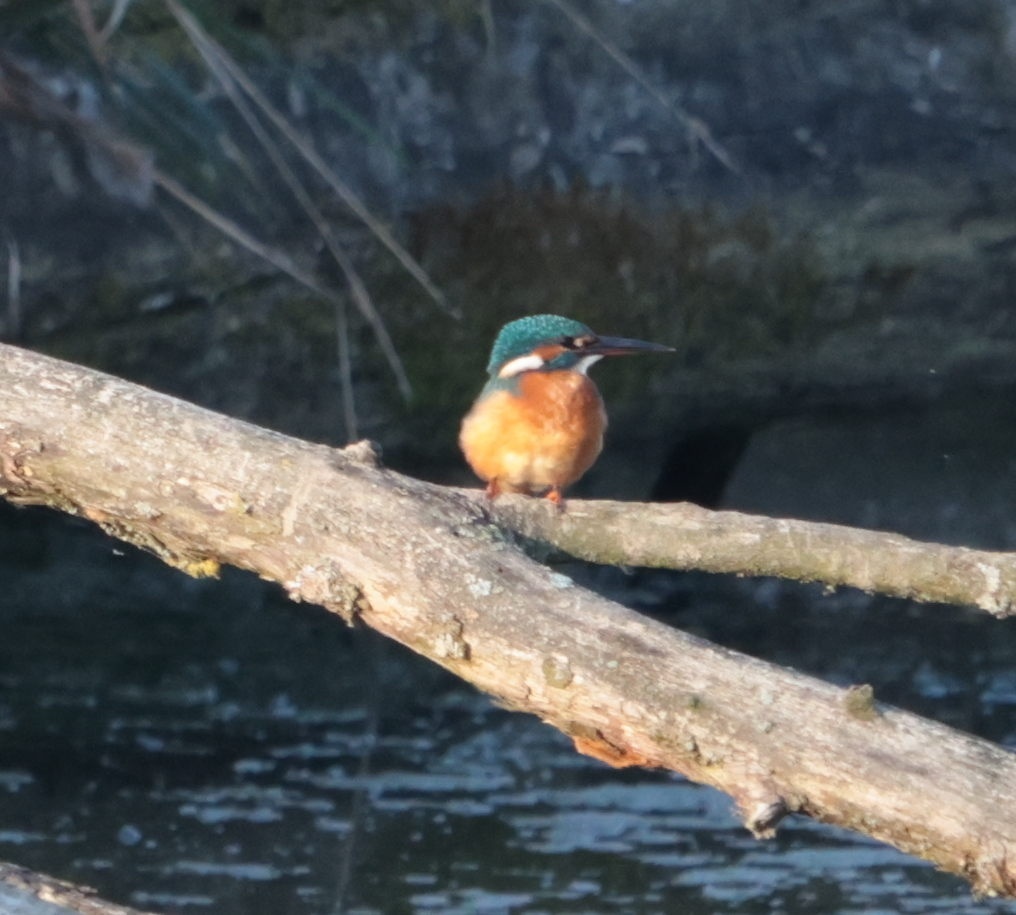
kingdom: Animalia
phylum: Chordata
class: Aves
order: Coraciiformes
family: Alcedinidae
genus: Alcedo
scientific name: Alcedo atthis
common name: Common kingfisher
